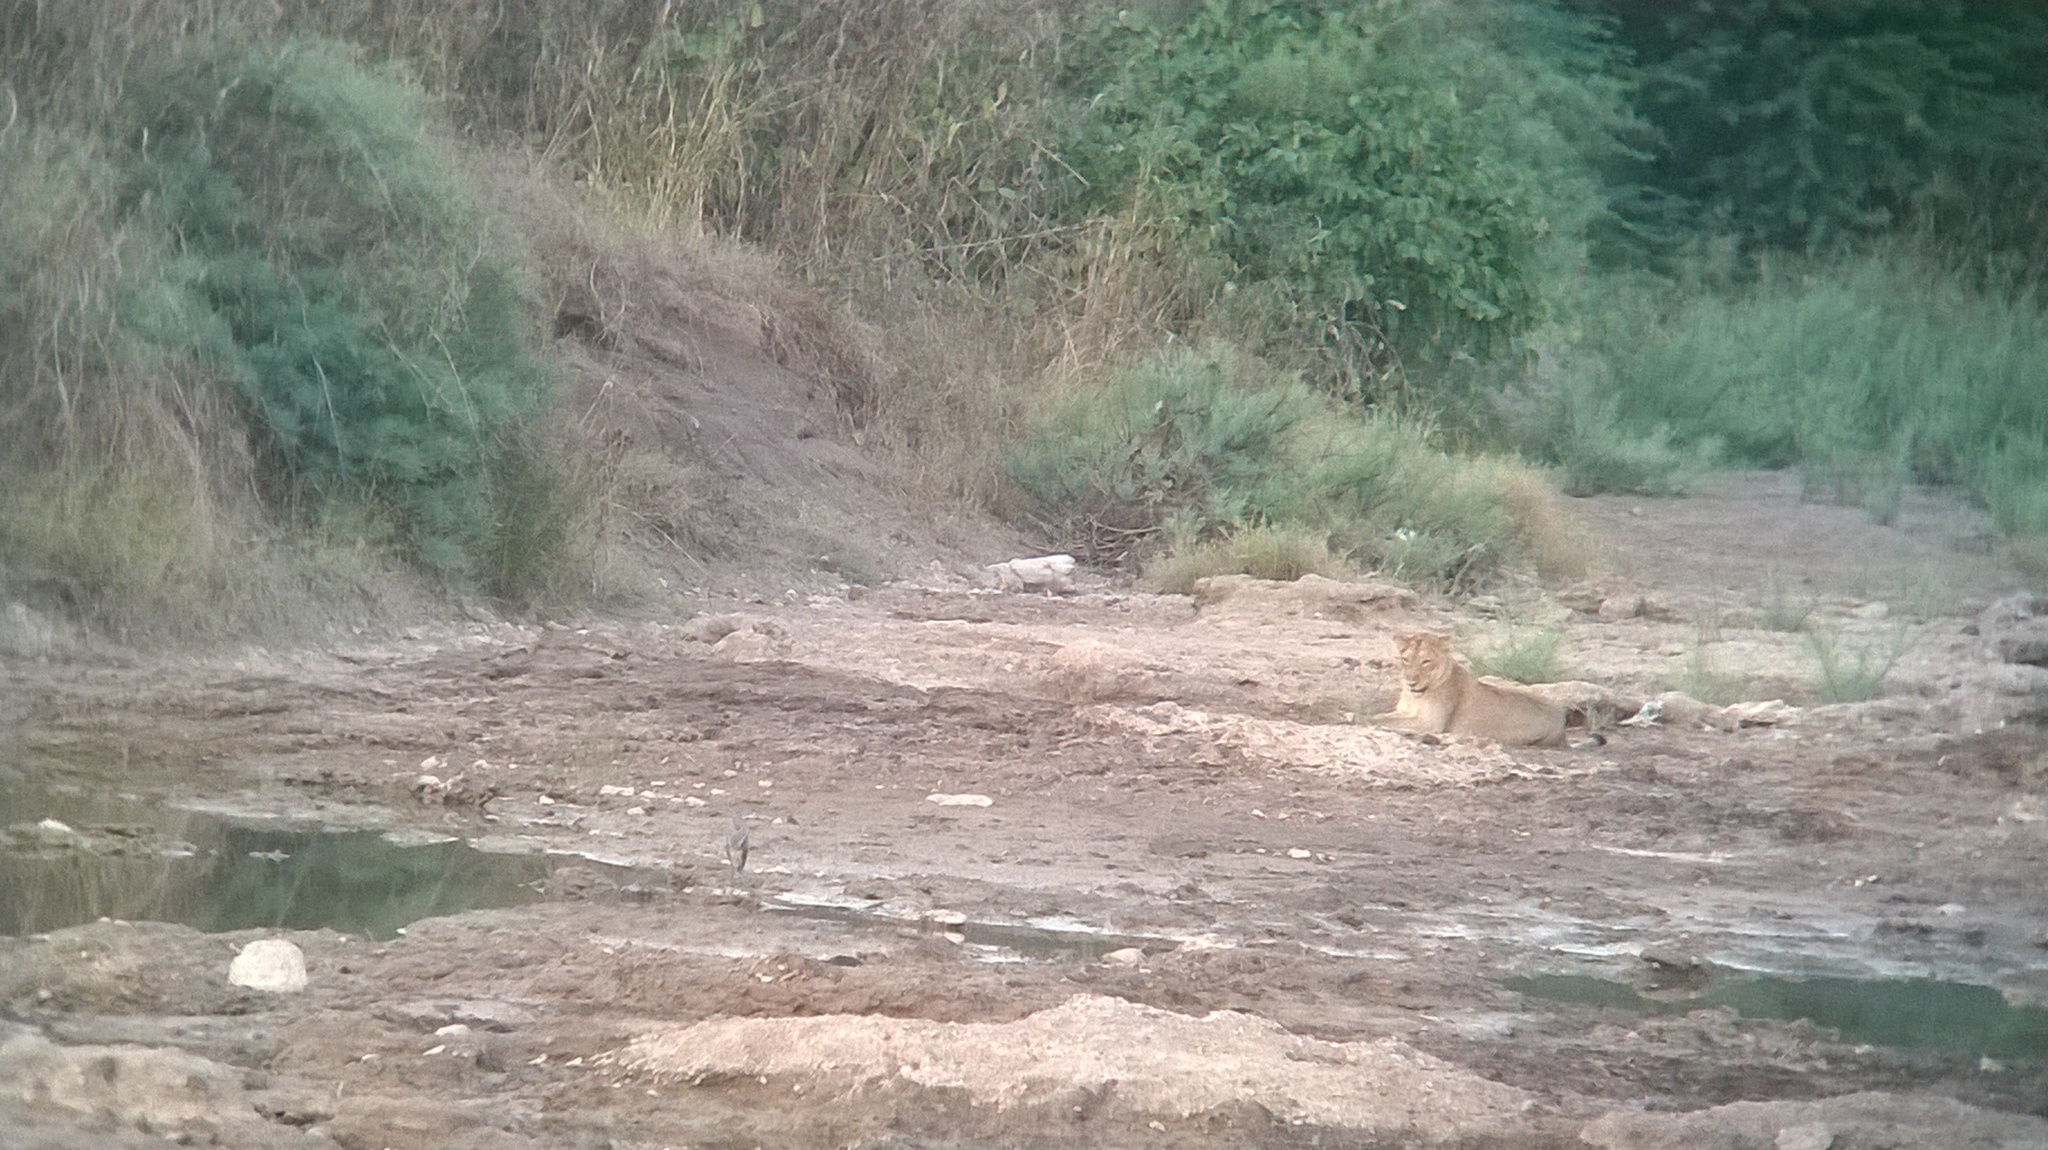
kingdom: Animalia
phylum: Chordata
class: Mammalia
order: Carnivora
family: Felidae
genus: Panthera
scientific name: Panthera leo
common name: Lion
